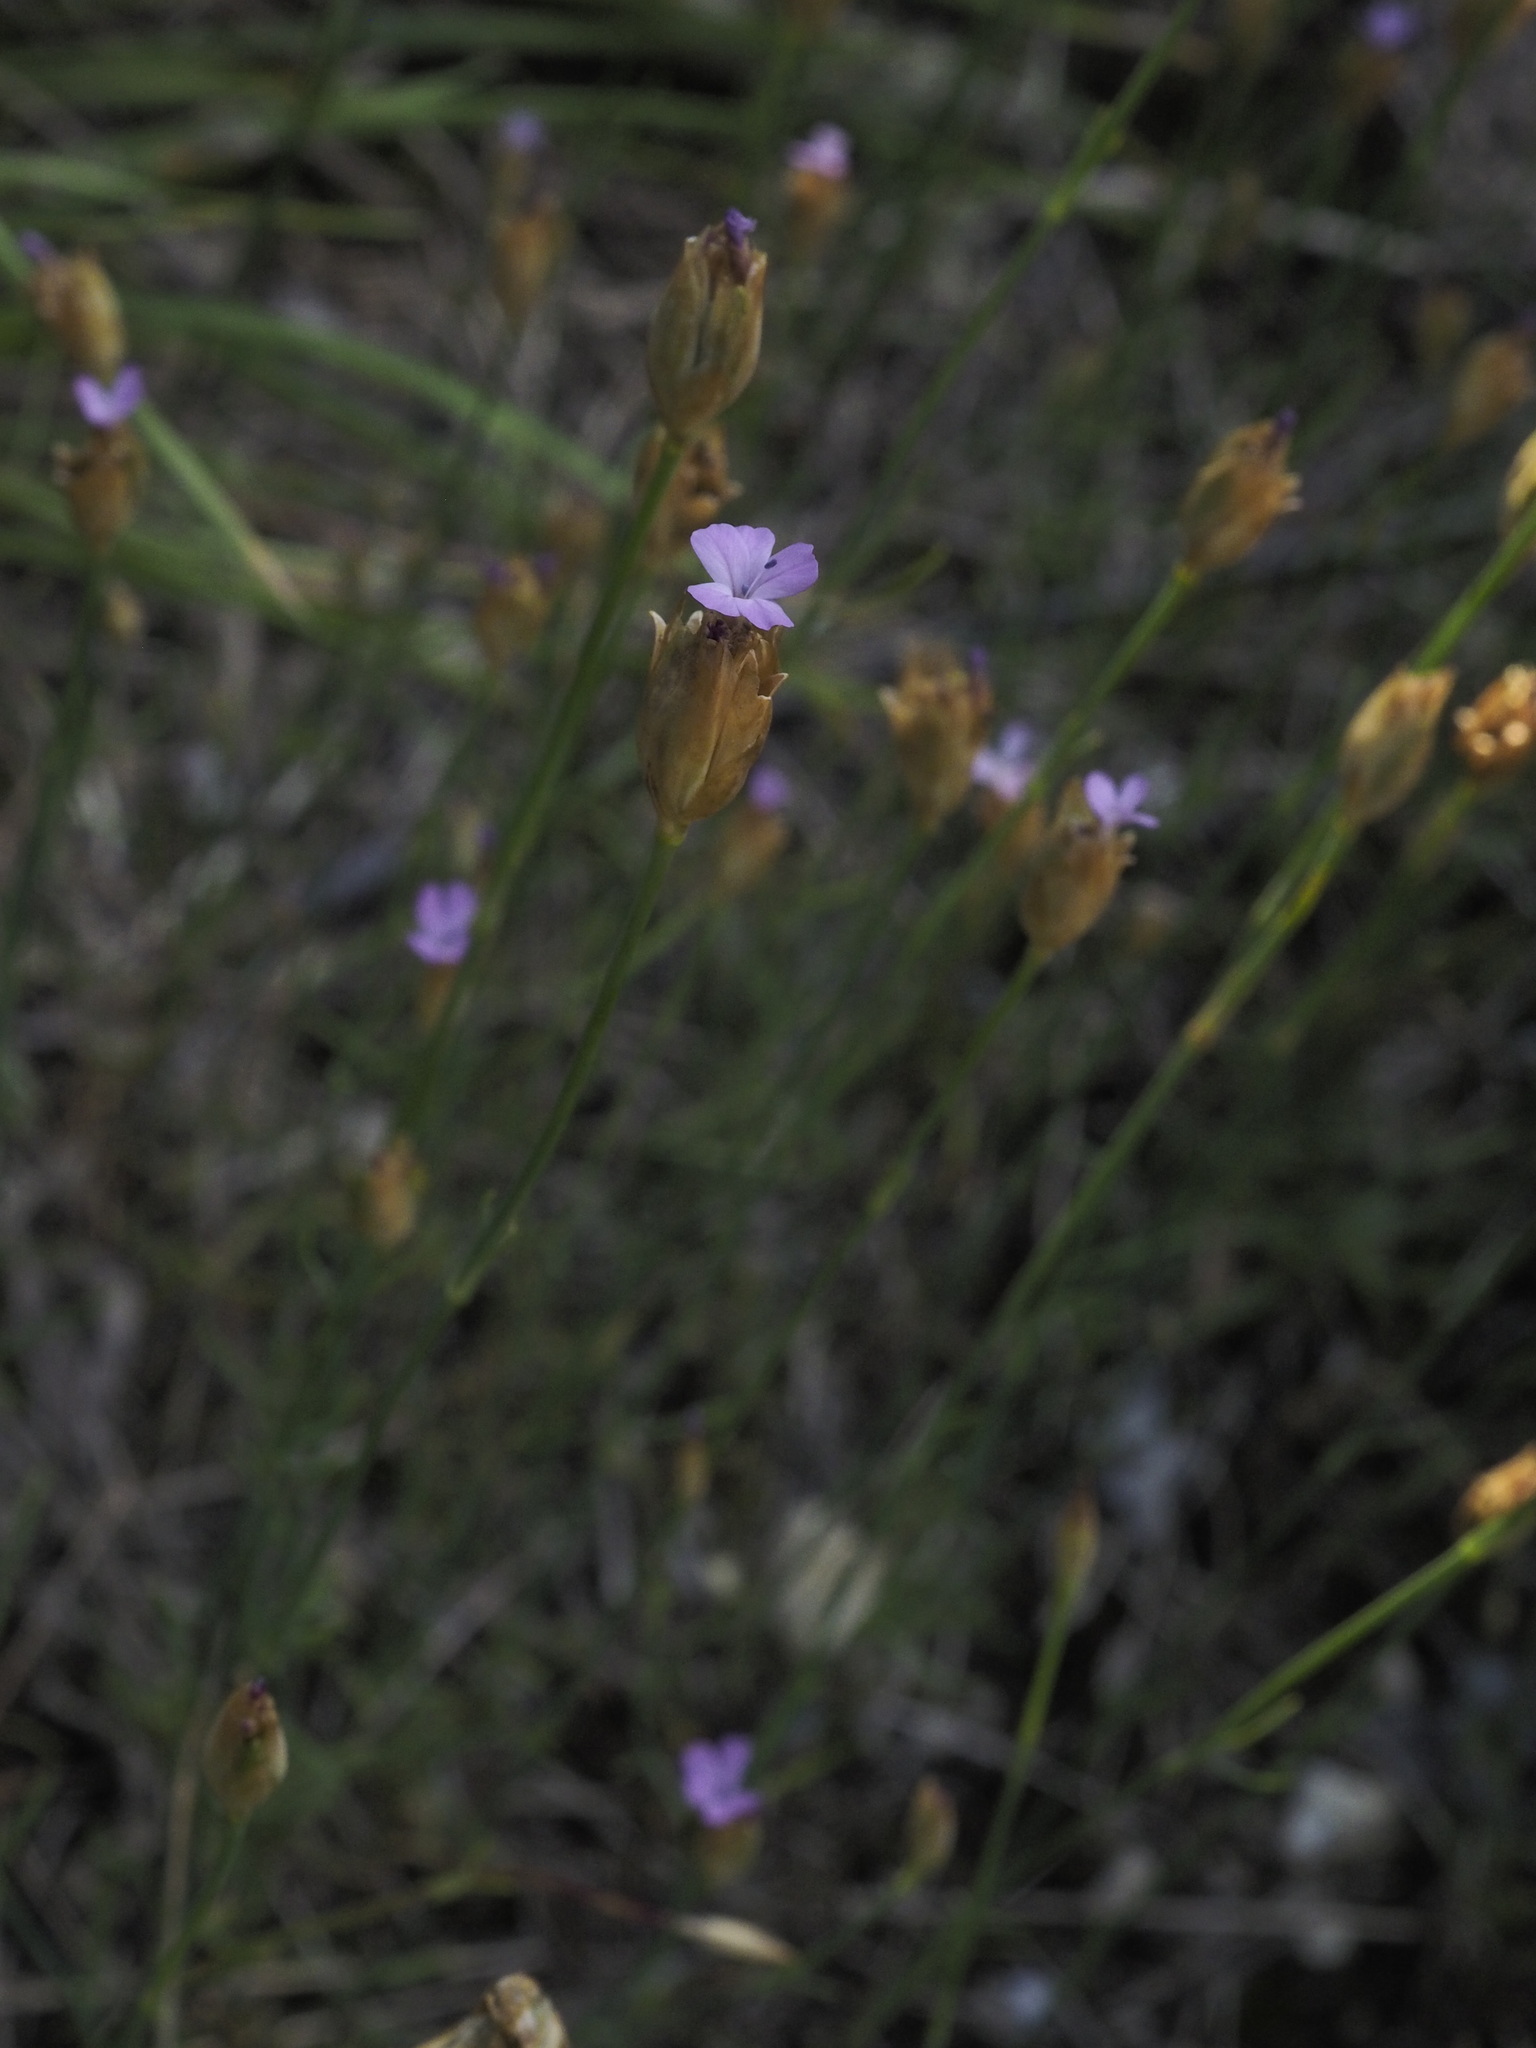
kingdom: Plantae
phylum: Tracheophyta
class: Magnoliopsida
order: Caryophyllales
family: Caryophyllaceae
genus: Petrorhagia
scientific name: Petrorhagia prolifera
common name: Proliferous pink
